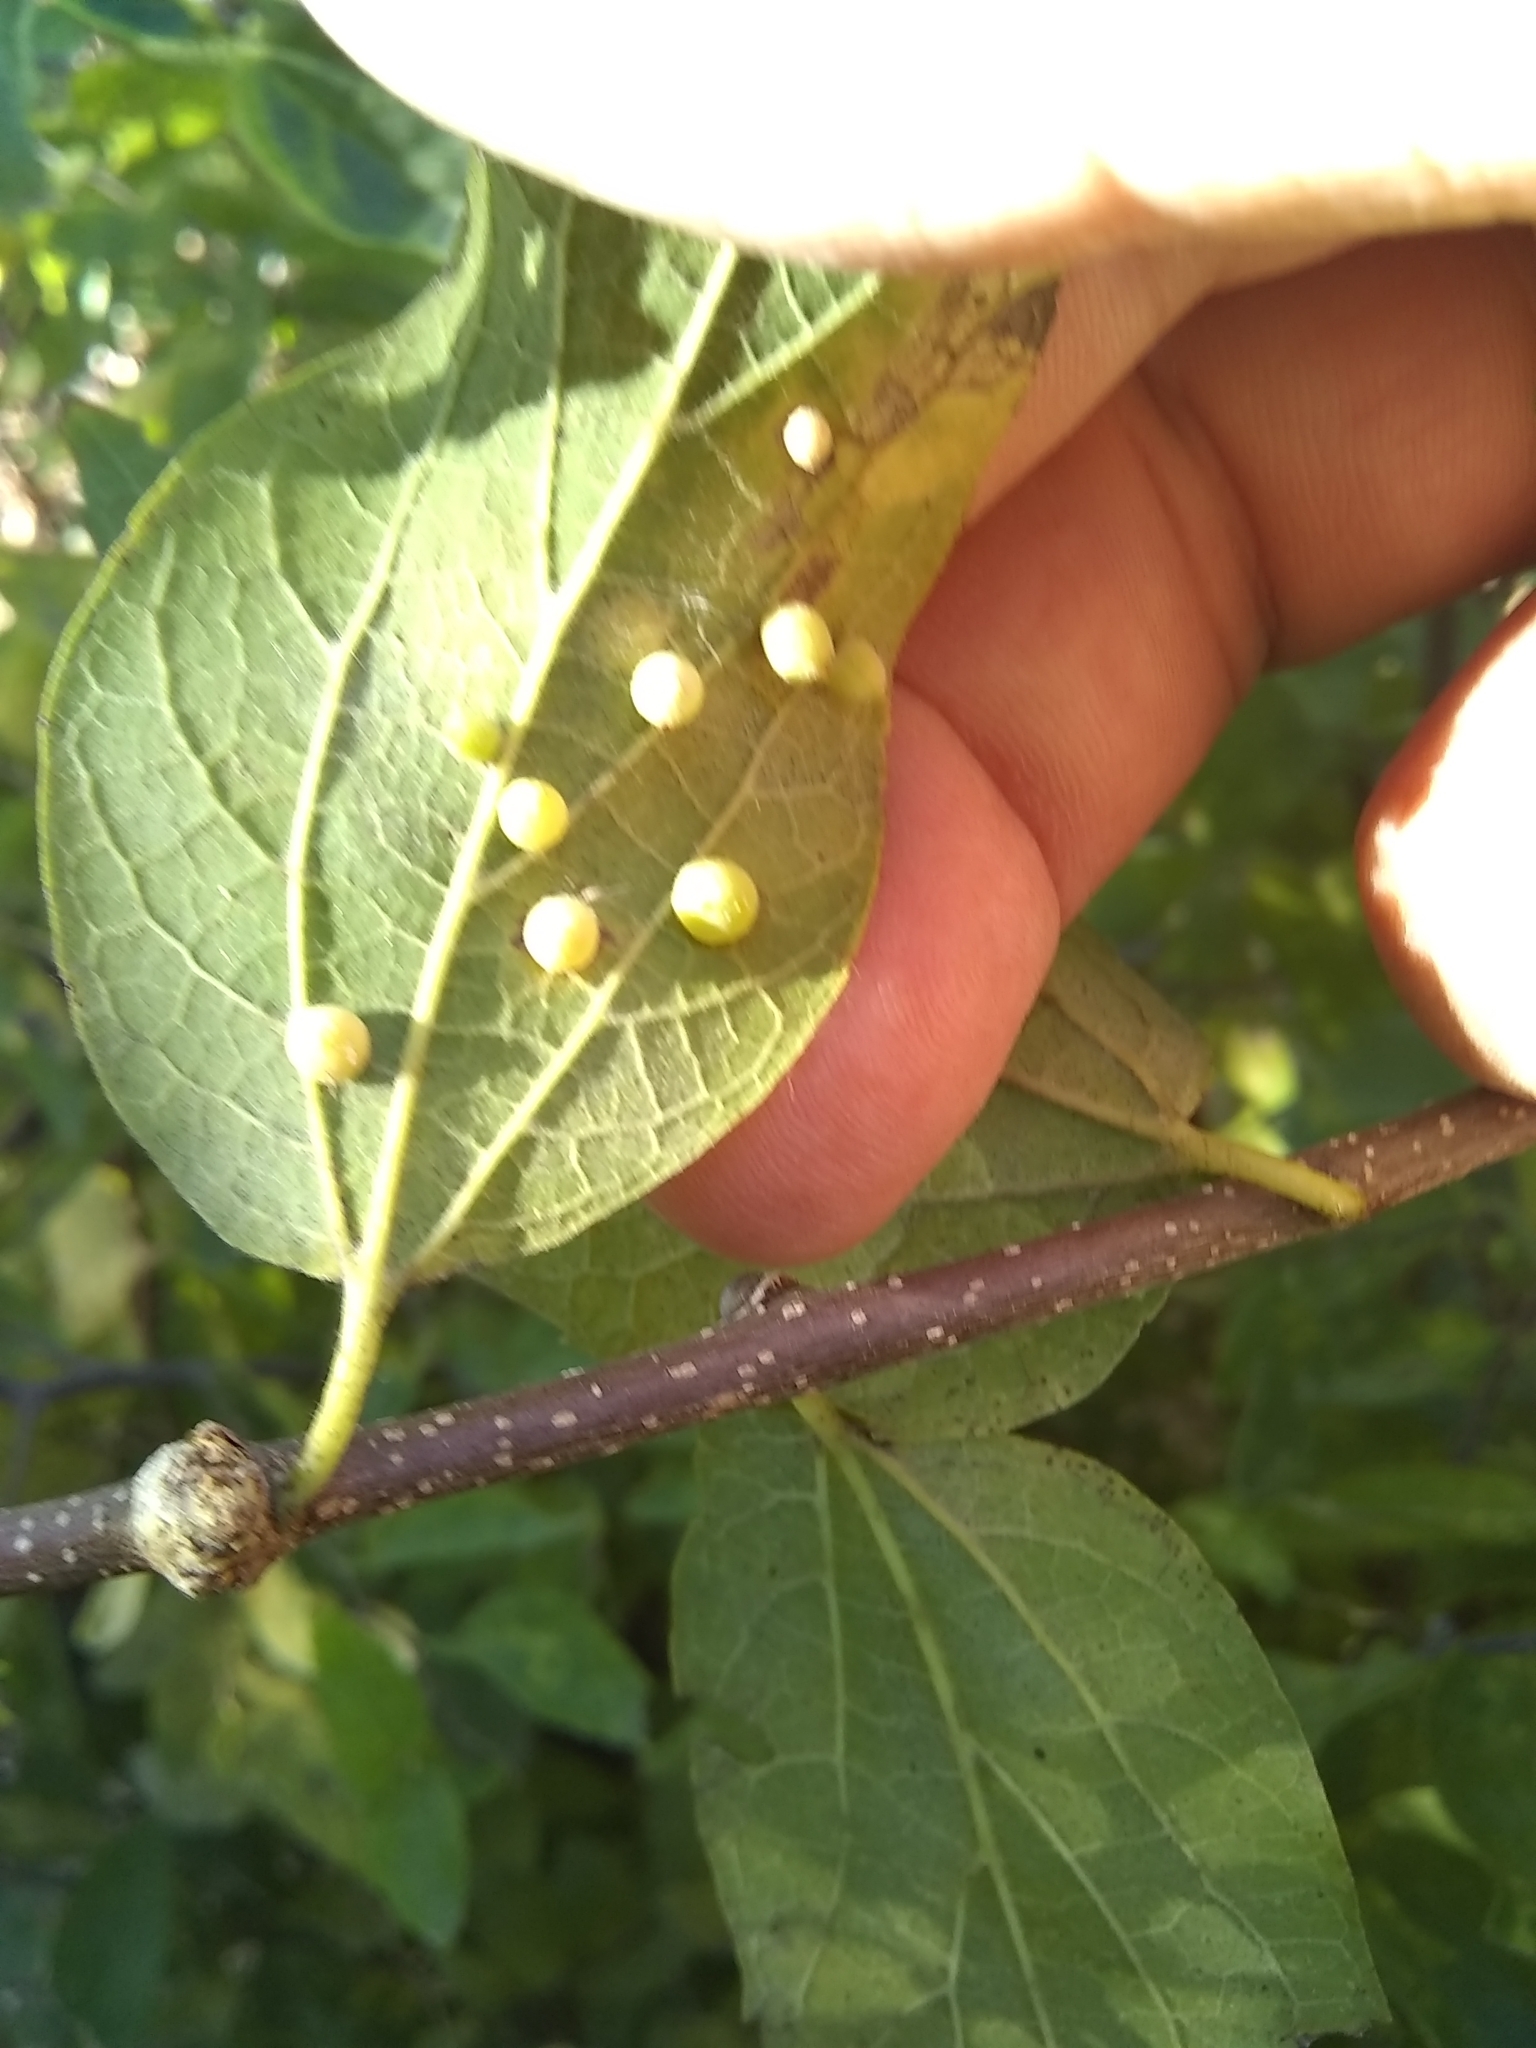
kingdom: Animalia
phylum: Arthropoda
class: Insecta
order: Diptera
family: Cecidomyiidae
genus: Celticecis
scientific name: Celticecis globosa
